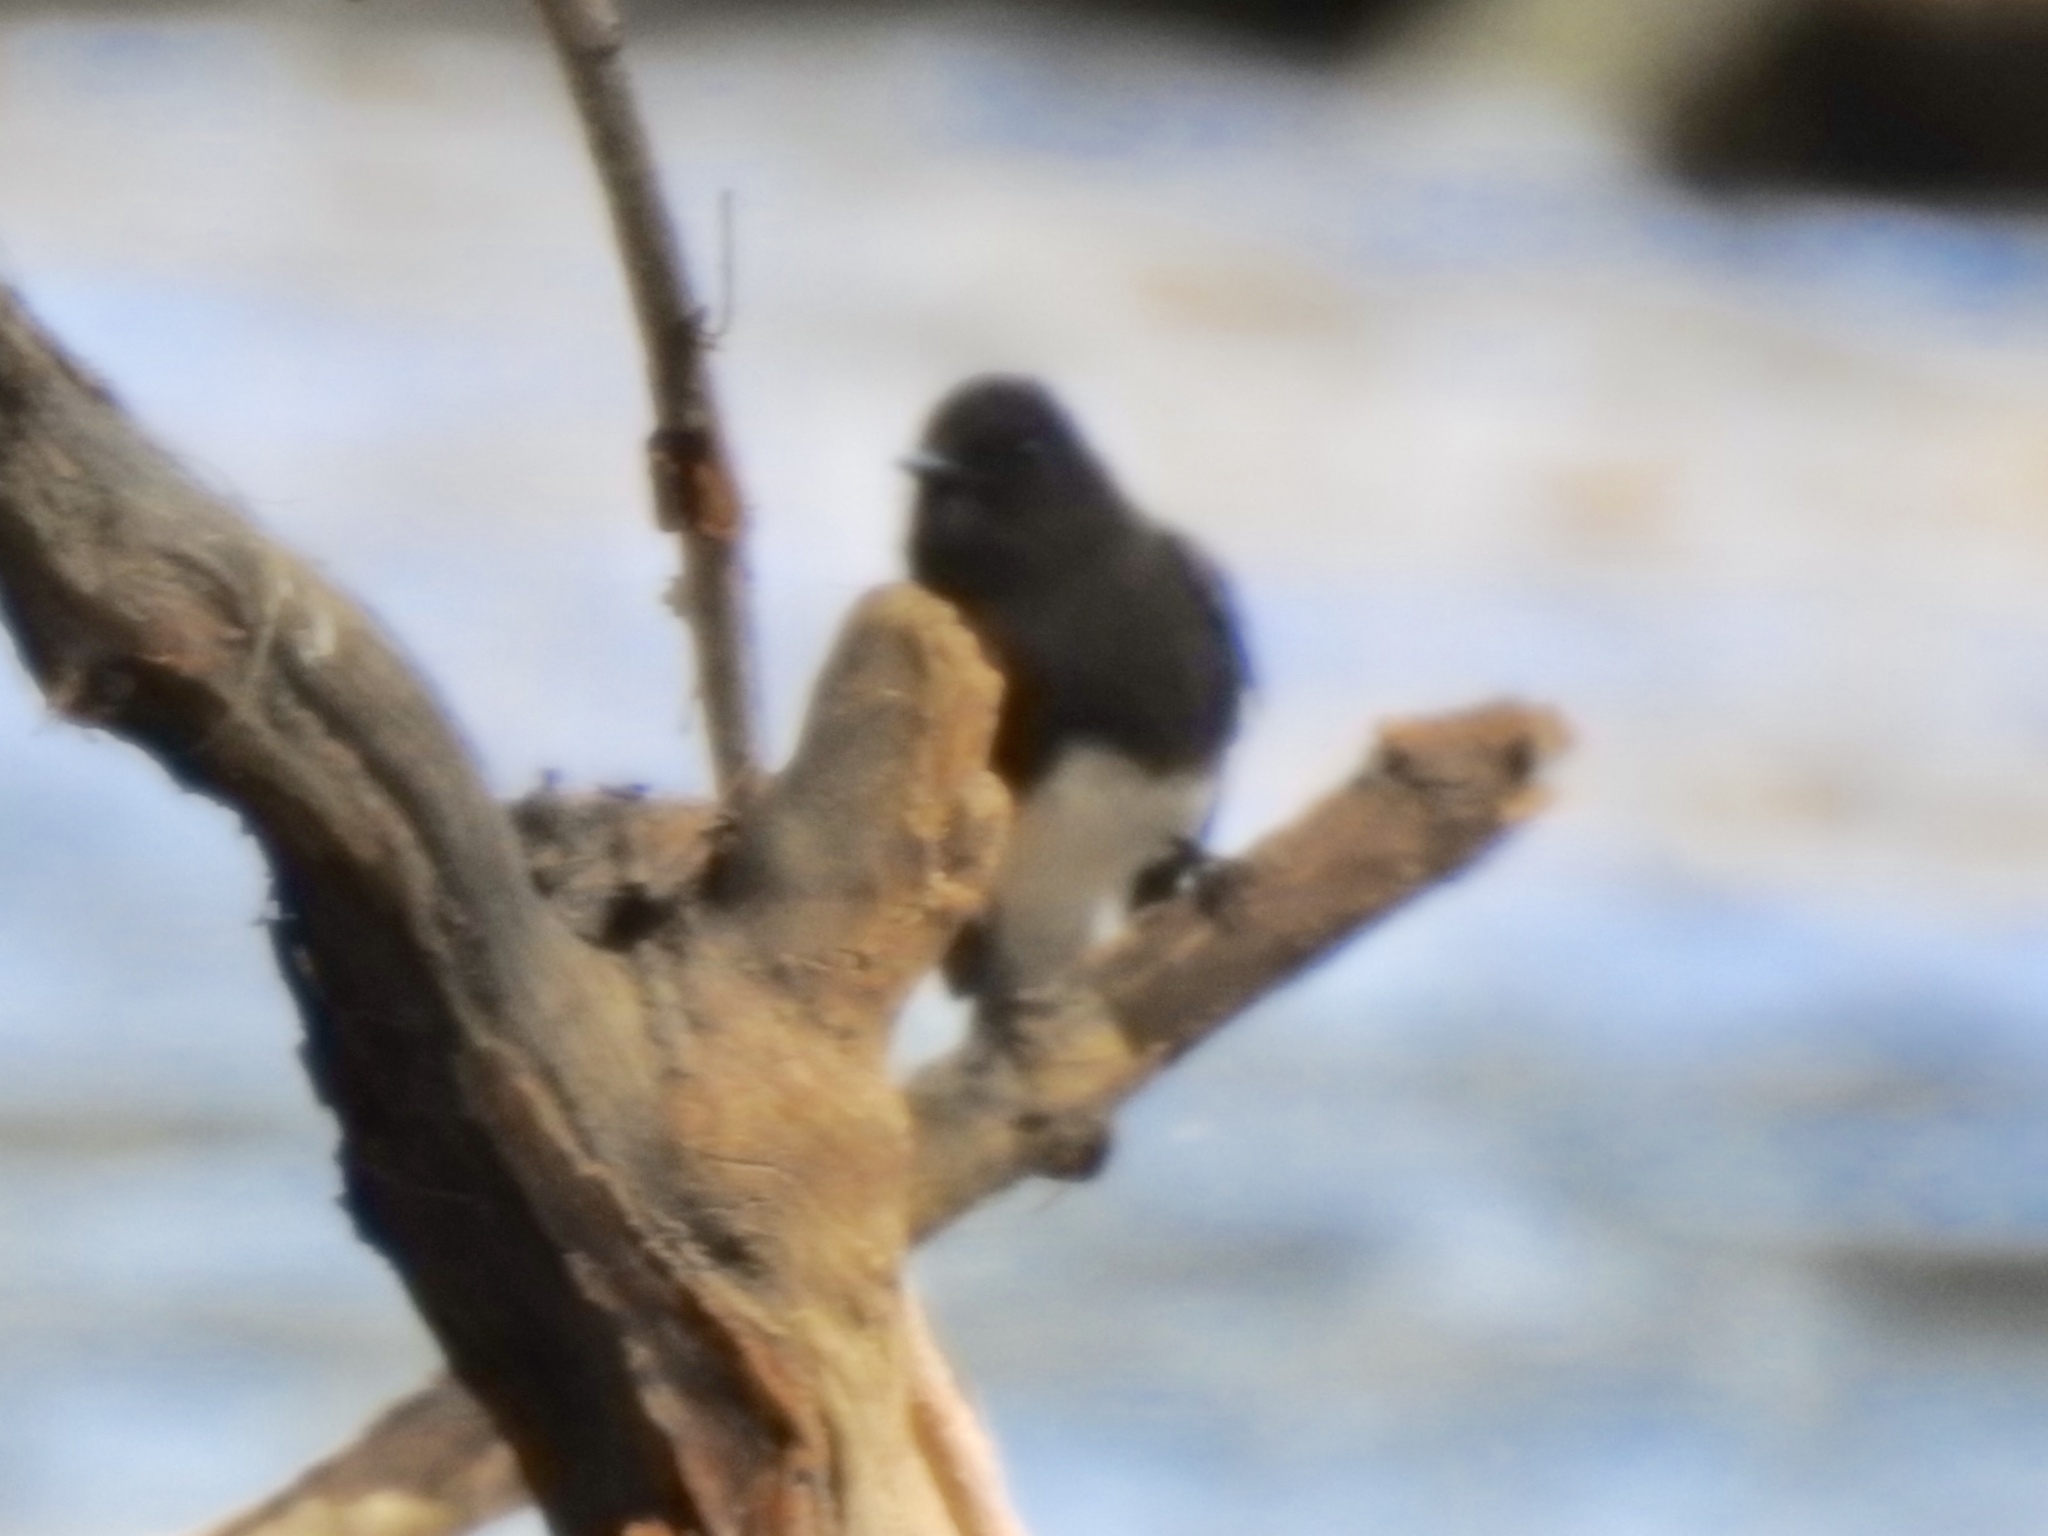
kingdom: Animalia
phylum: Chordata
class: Aves
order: Passeriformes
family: Tyrannidae
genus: Sayornis
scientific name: Sayornis nigricans
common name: Black phoebe
